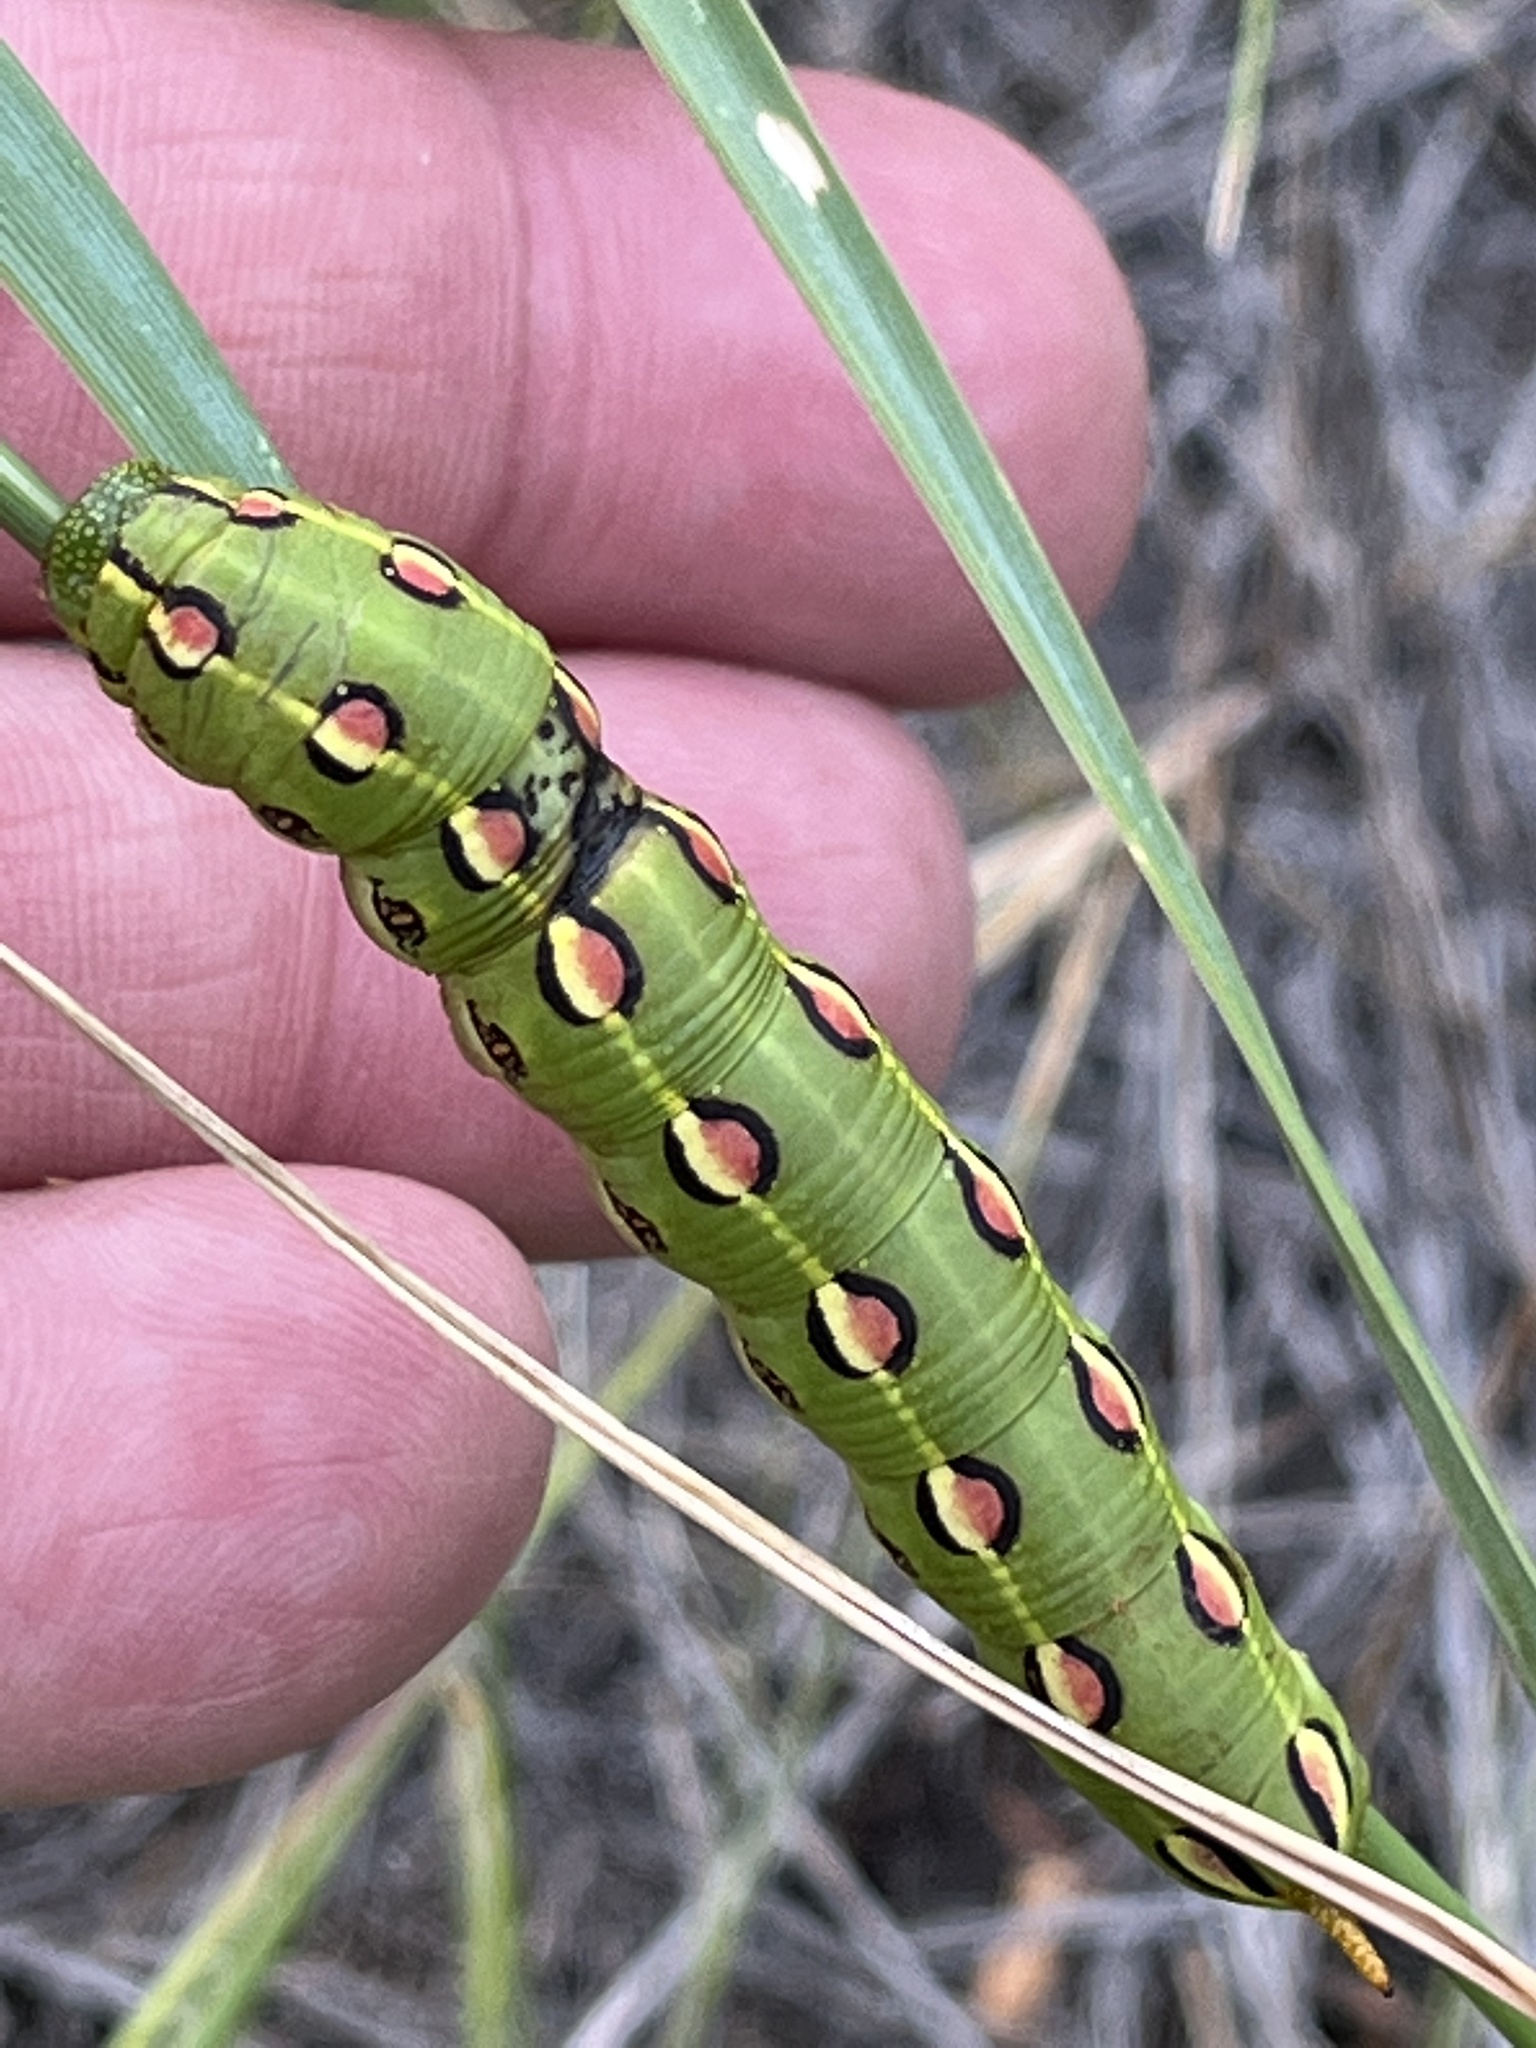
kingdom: Animalia
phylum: Arthropoda
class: Insecta
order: Lepidoptera
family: Sphingidae
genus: Hyles
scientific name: Hyles lineata
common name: White-lined sphinx
